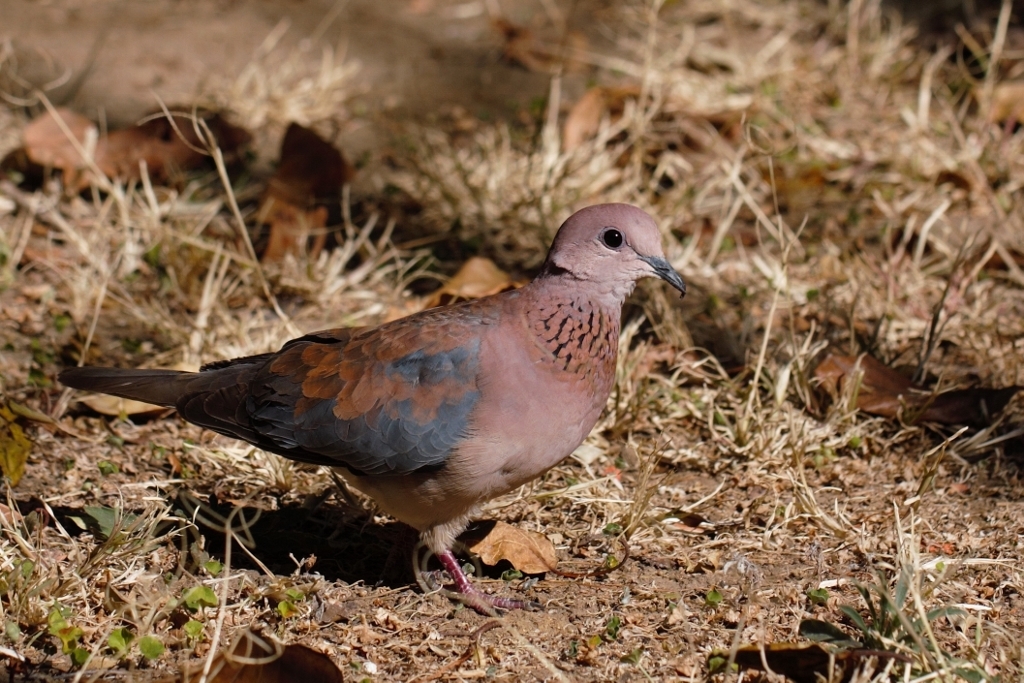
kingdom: Animalia
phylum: Chordata
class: Aves
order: Columbiformes
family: Columbidae
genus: Spilopelia
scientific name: Spilopelia senegalensis
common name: Laughing dove
